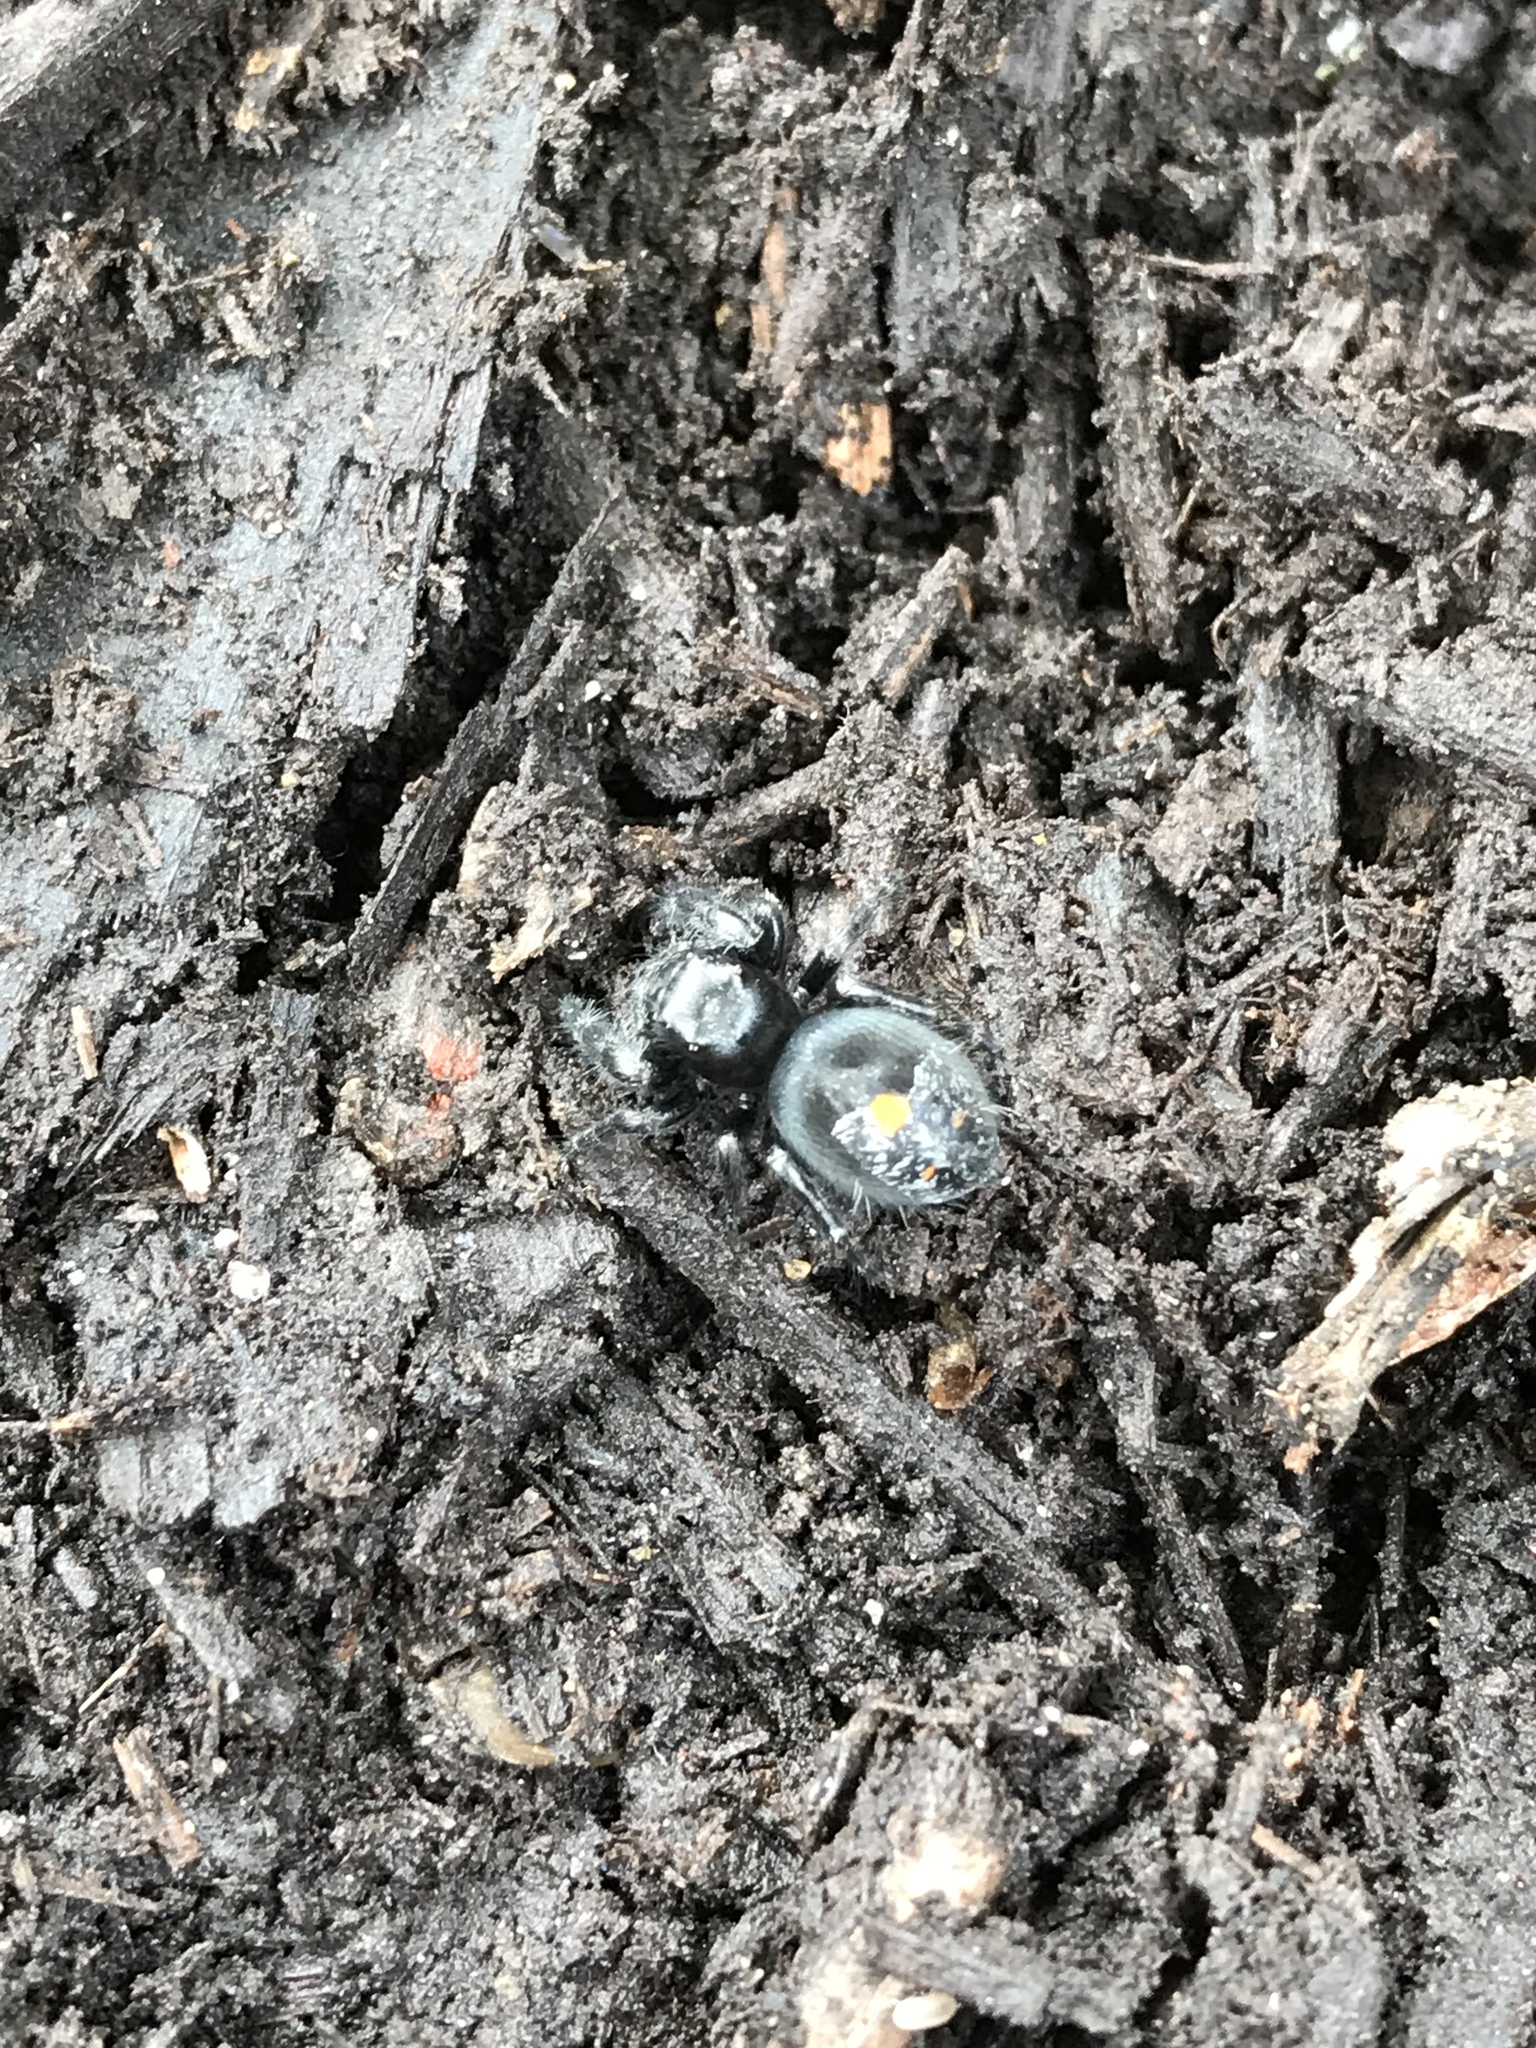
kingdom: Animalia
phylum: Arthropoda
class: Arachnida
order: Araneae
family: Salticidae
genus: Phidippus
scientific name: Phidippus audax
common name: Bold jumper
